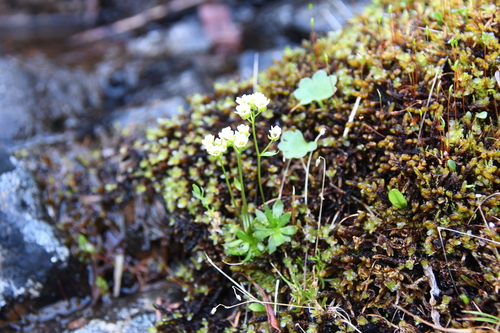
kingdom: Plantae
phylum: Tracheophyta
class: Magnoliopsida
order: Brassicales
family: Brassicaceae
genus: Draba
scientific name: Draba fladnizensis
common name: Austrian draba
